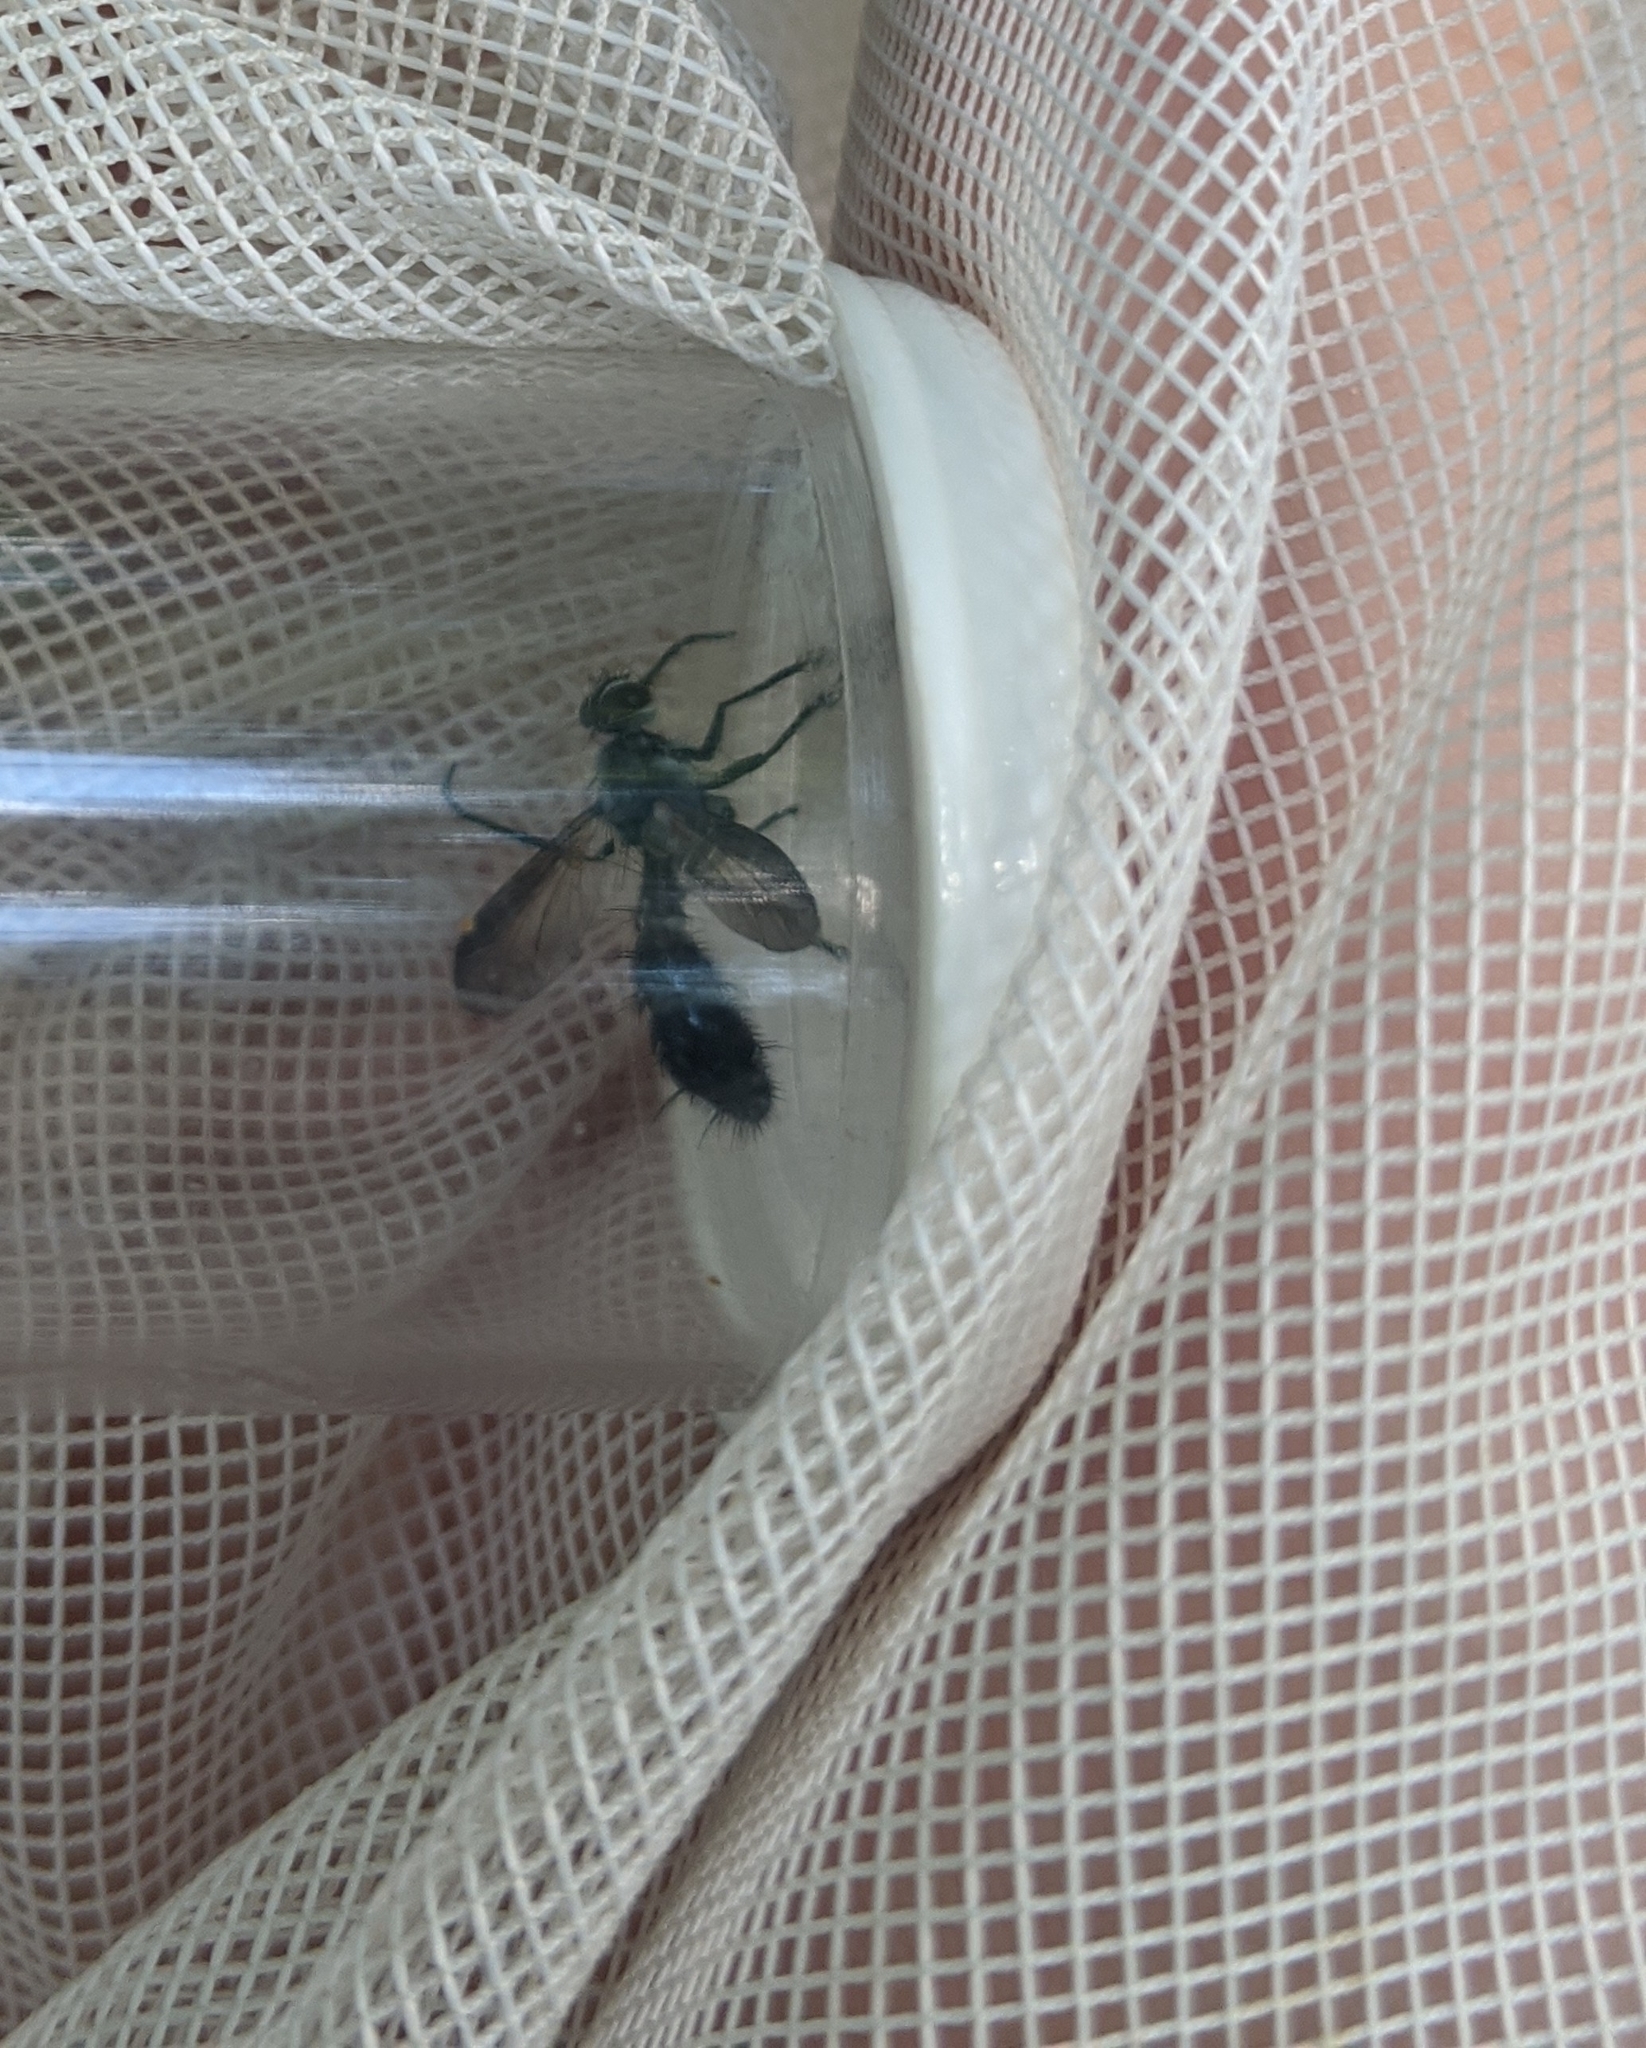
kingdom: Animalia
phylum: Arthropoda
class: Insecta
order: Diptera
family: Tachinidae
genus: Cordyligaster
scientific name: Cordyligaster septentrionalis
